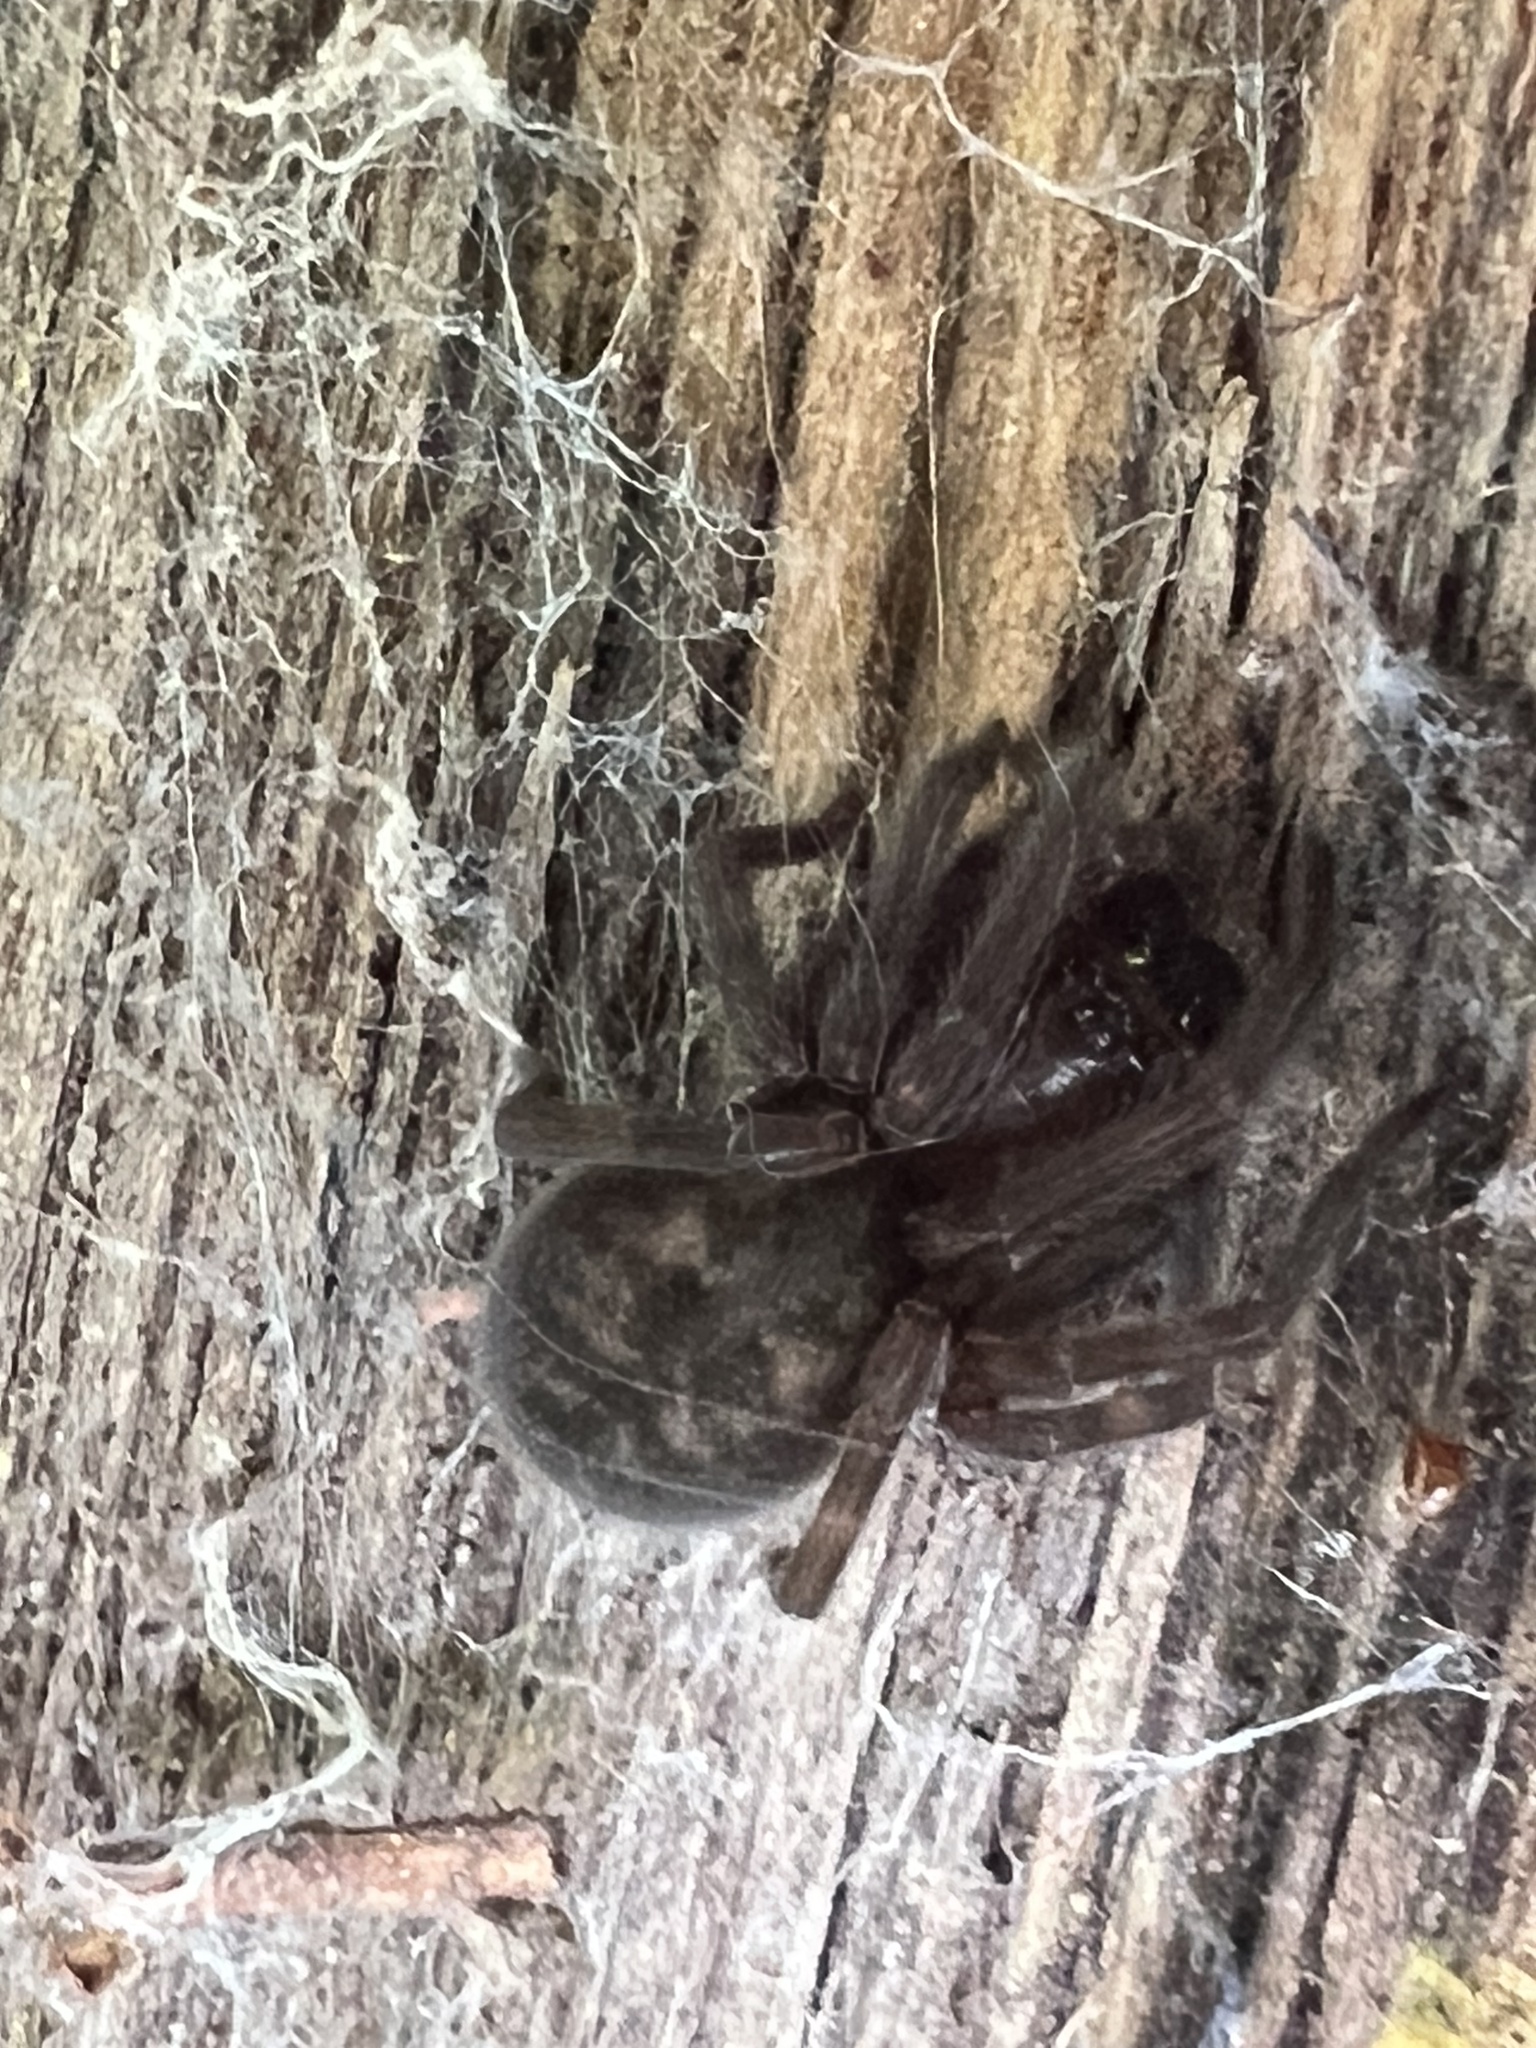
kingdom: Animalia
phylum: Arthropoda
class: Arachnida
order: Araneae
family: Amaurobiidae
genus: Amaurobius
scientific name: Amaurobius ferox
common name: Black laceweaver
